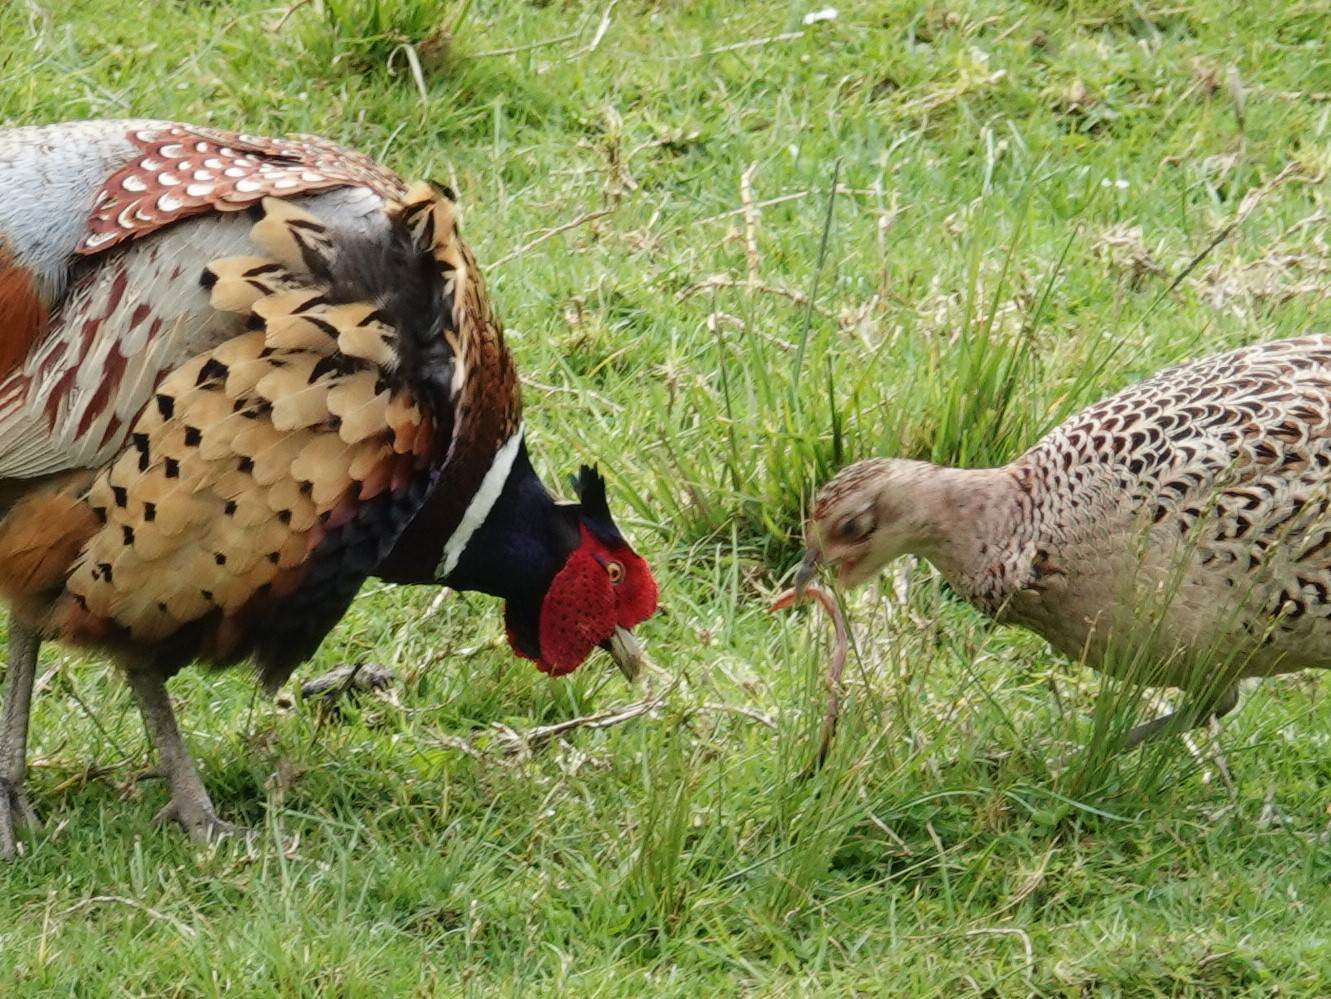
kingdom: Animalia
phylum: Chordata
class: Aves
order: Galliformes
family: Phasianidae
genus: Phasianus
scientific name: Phasianus colchicus
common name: Common pheasant
